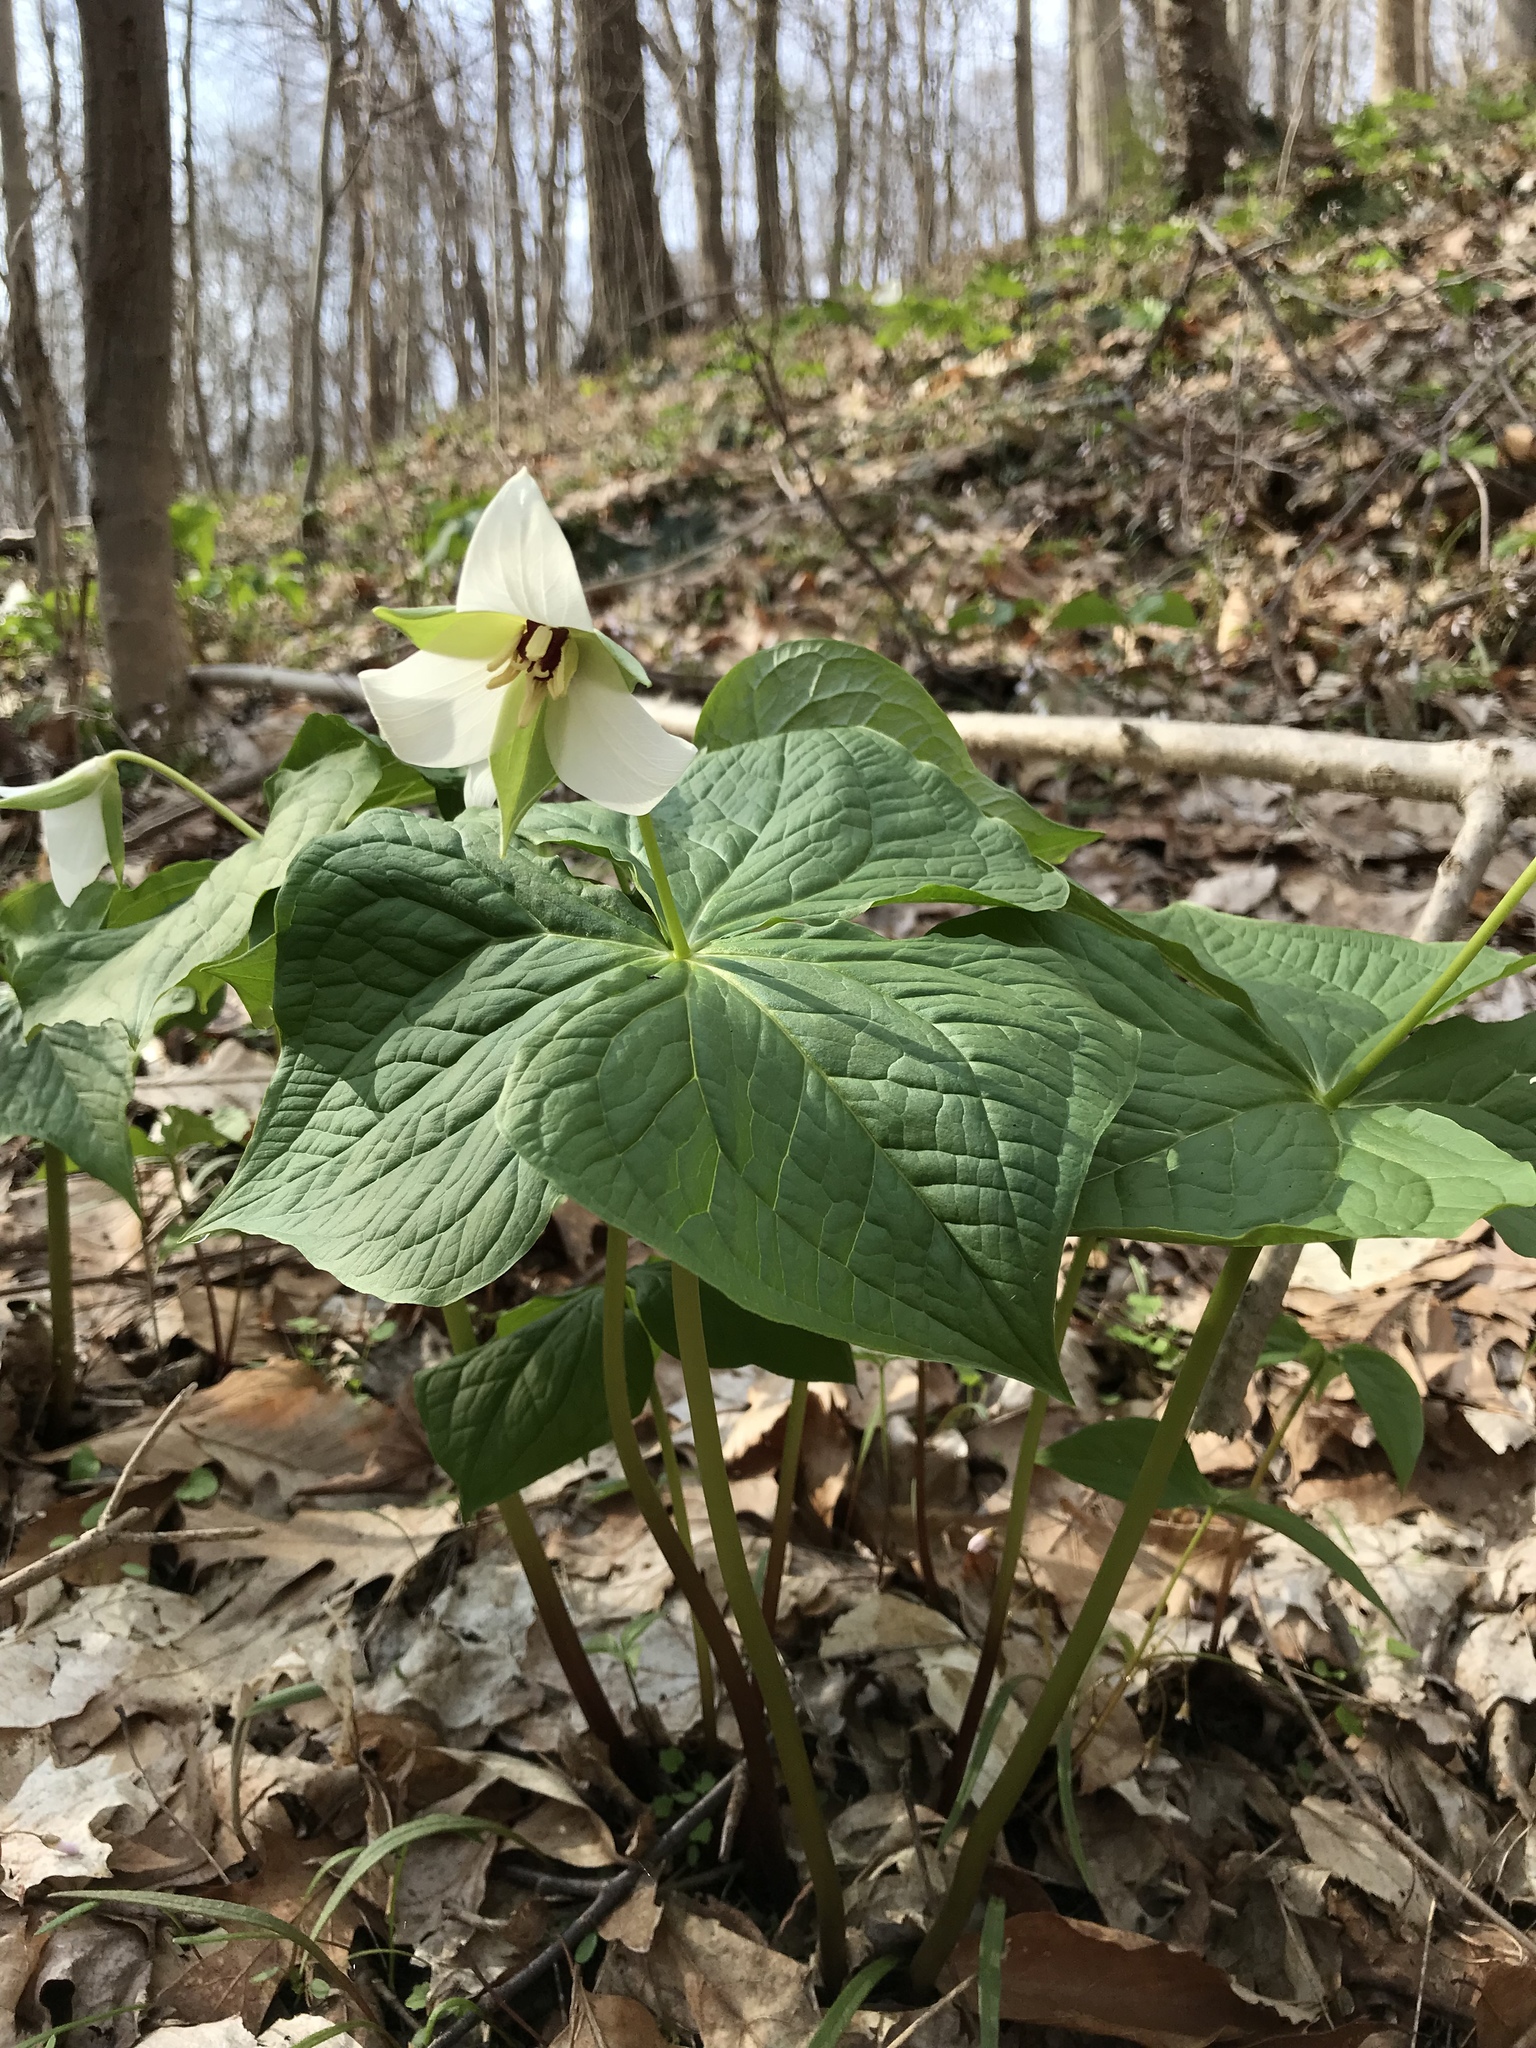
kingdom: Plantae
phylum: Tracheophyta
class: Liliopsida
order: Liliales
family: Melanthiaceae
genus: Trillium
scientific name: Trillium erectum
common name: Purple trillium
